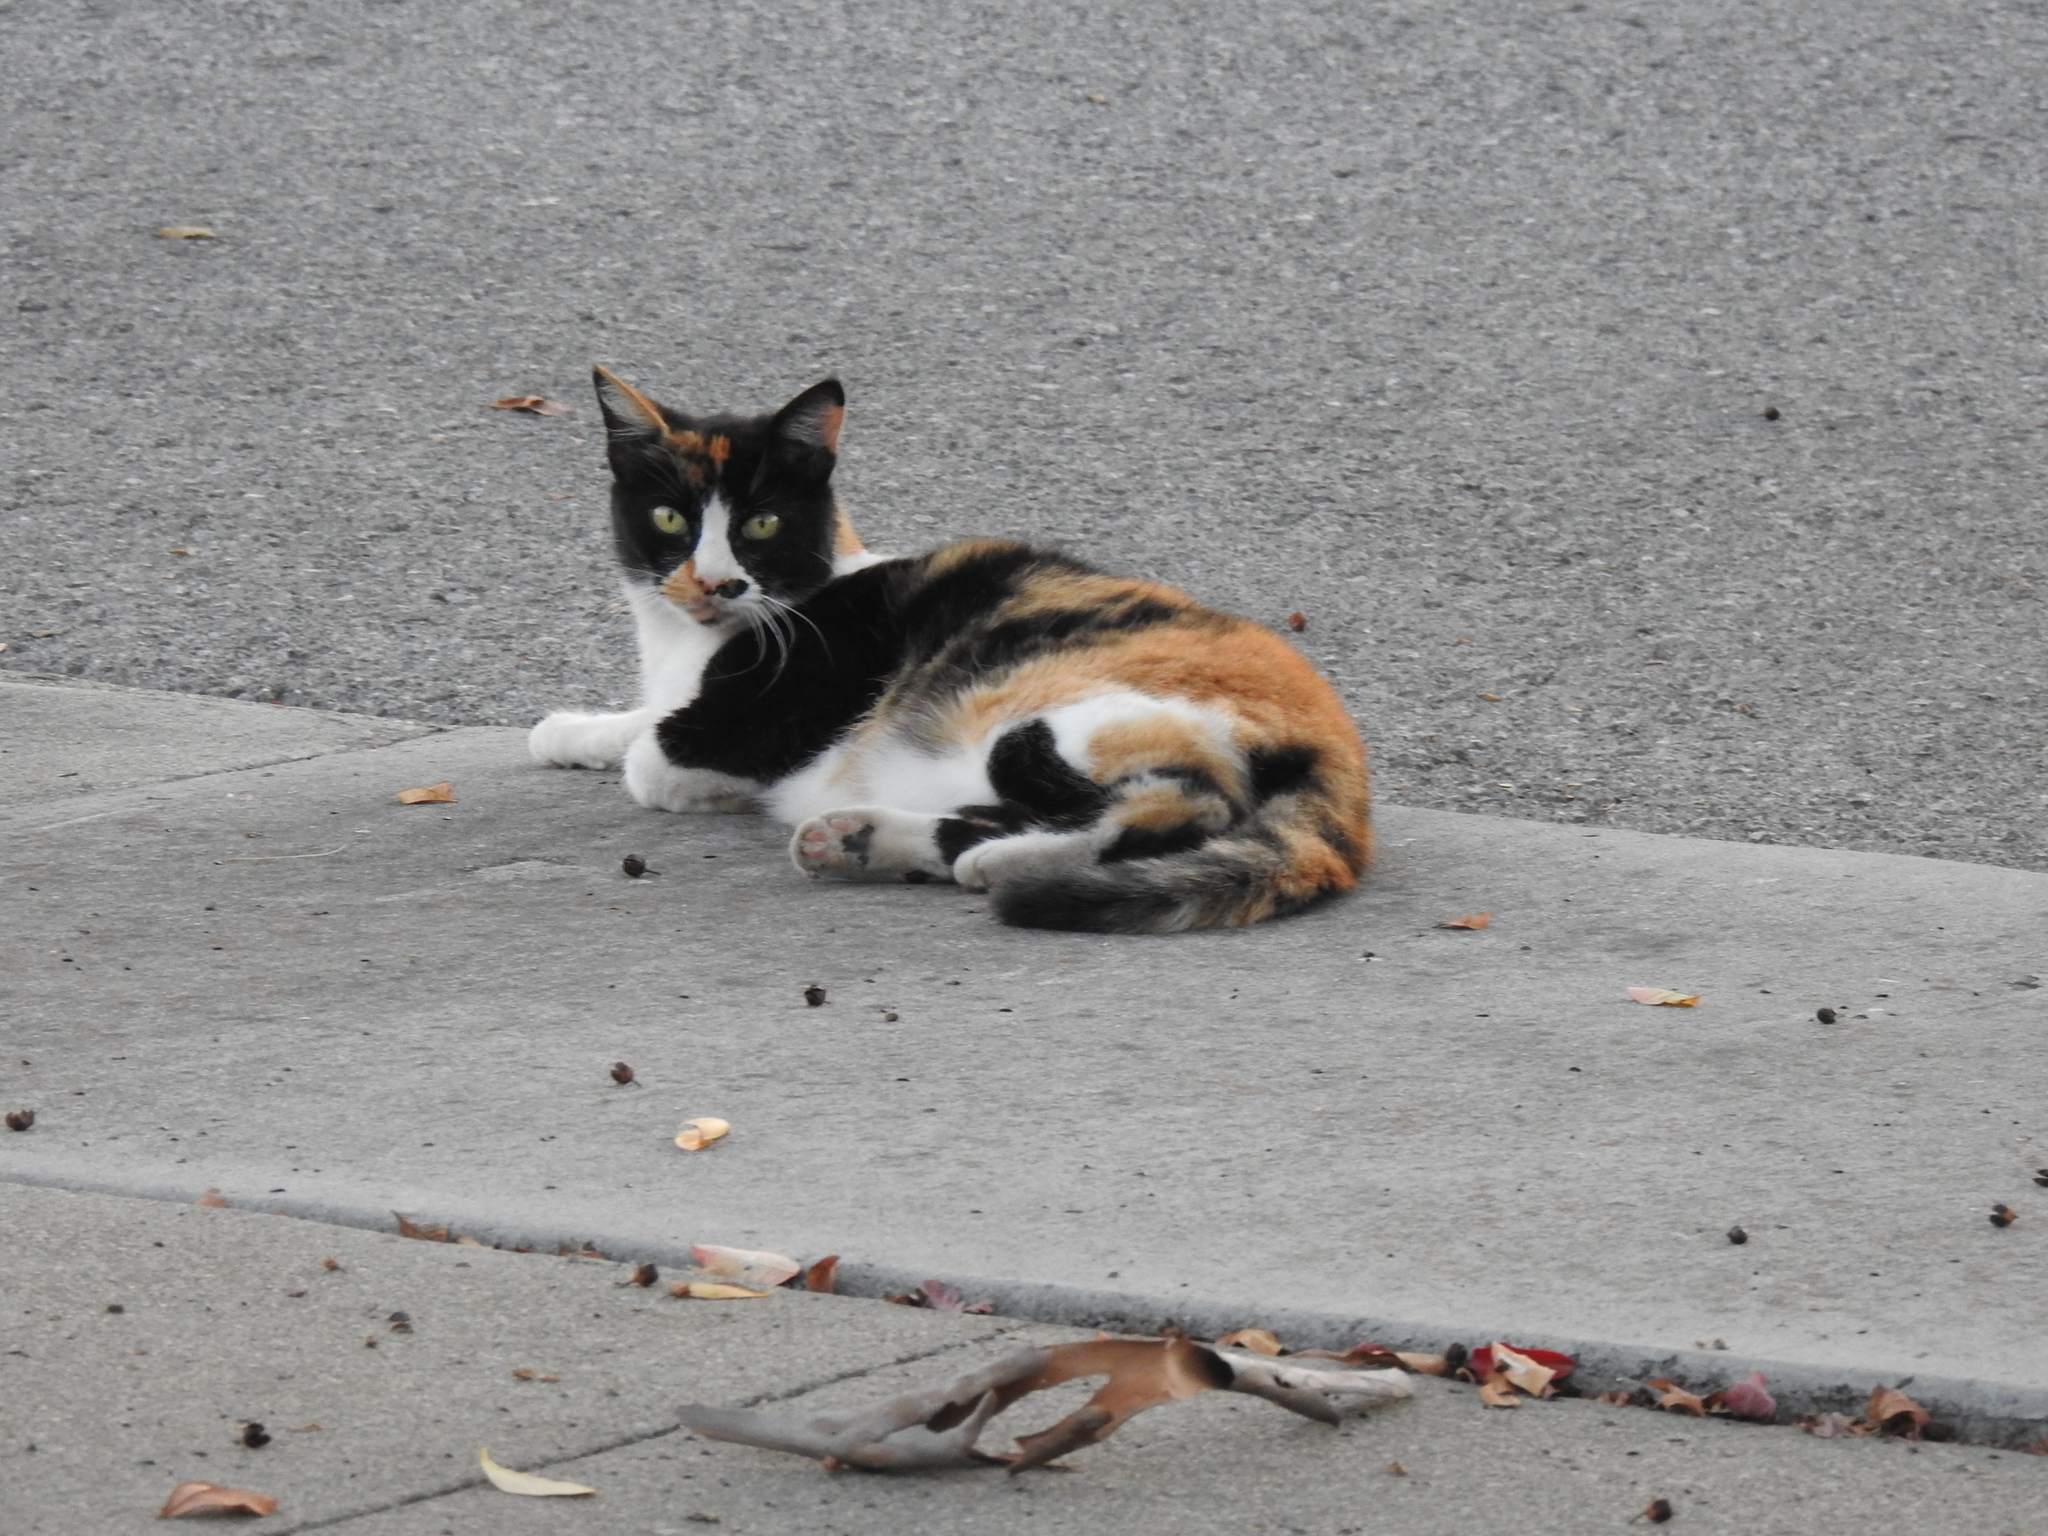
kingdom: Animalia
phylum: Chordata
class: Mammalia
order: Carnivora
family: Felidae
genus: Felis
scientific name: Felis catus
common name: Domestic cat
